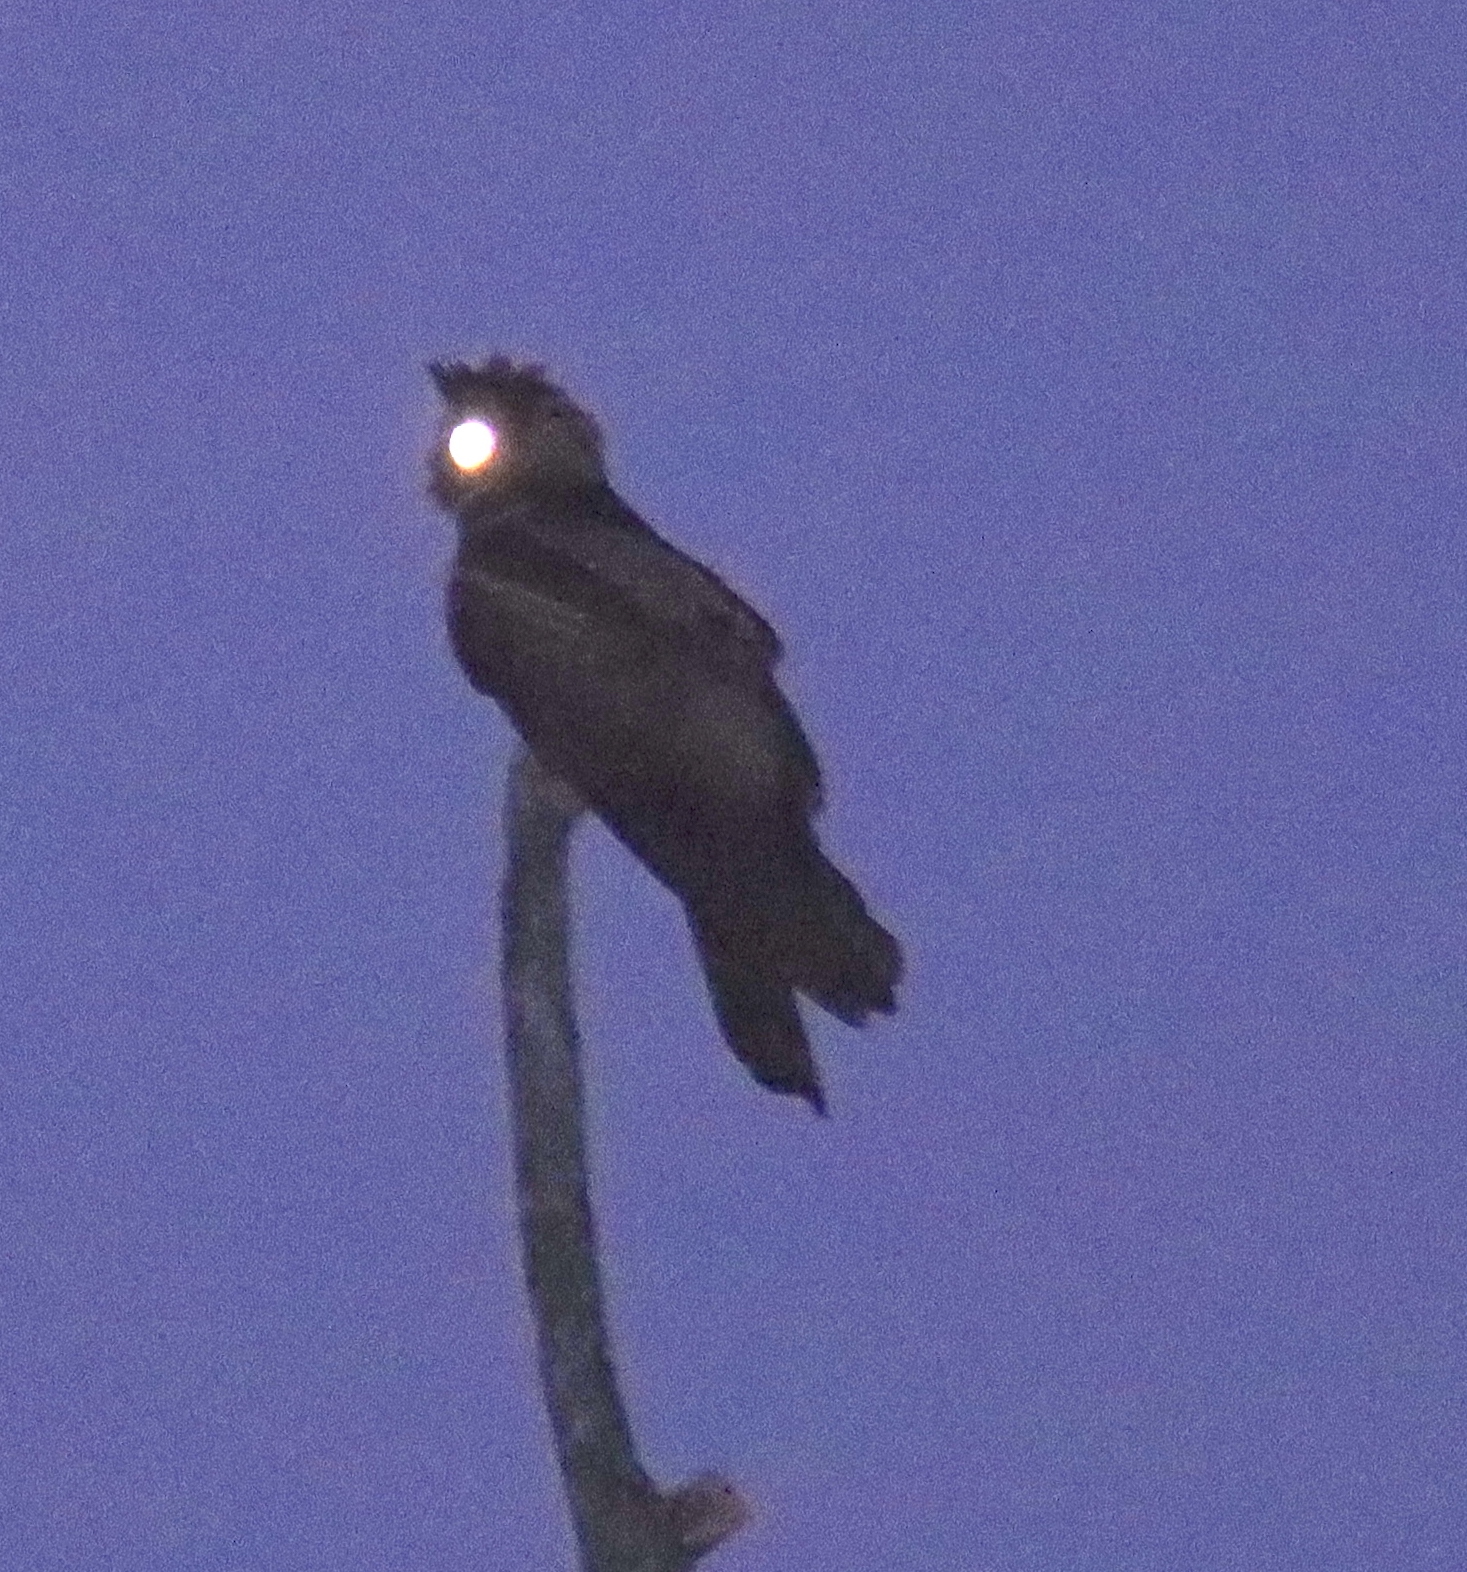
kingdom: Animalia
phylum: Chordata
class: Aves
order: Caprimulgiformes
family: Caprimulgidae
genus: Lyncornis
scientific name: Lyncornis macrotis
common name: Great eared-nightjar
